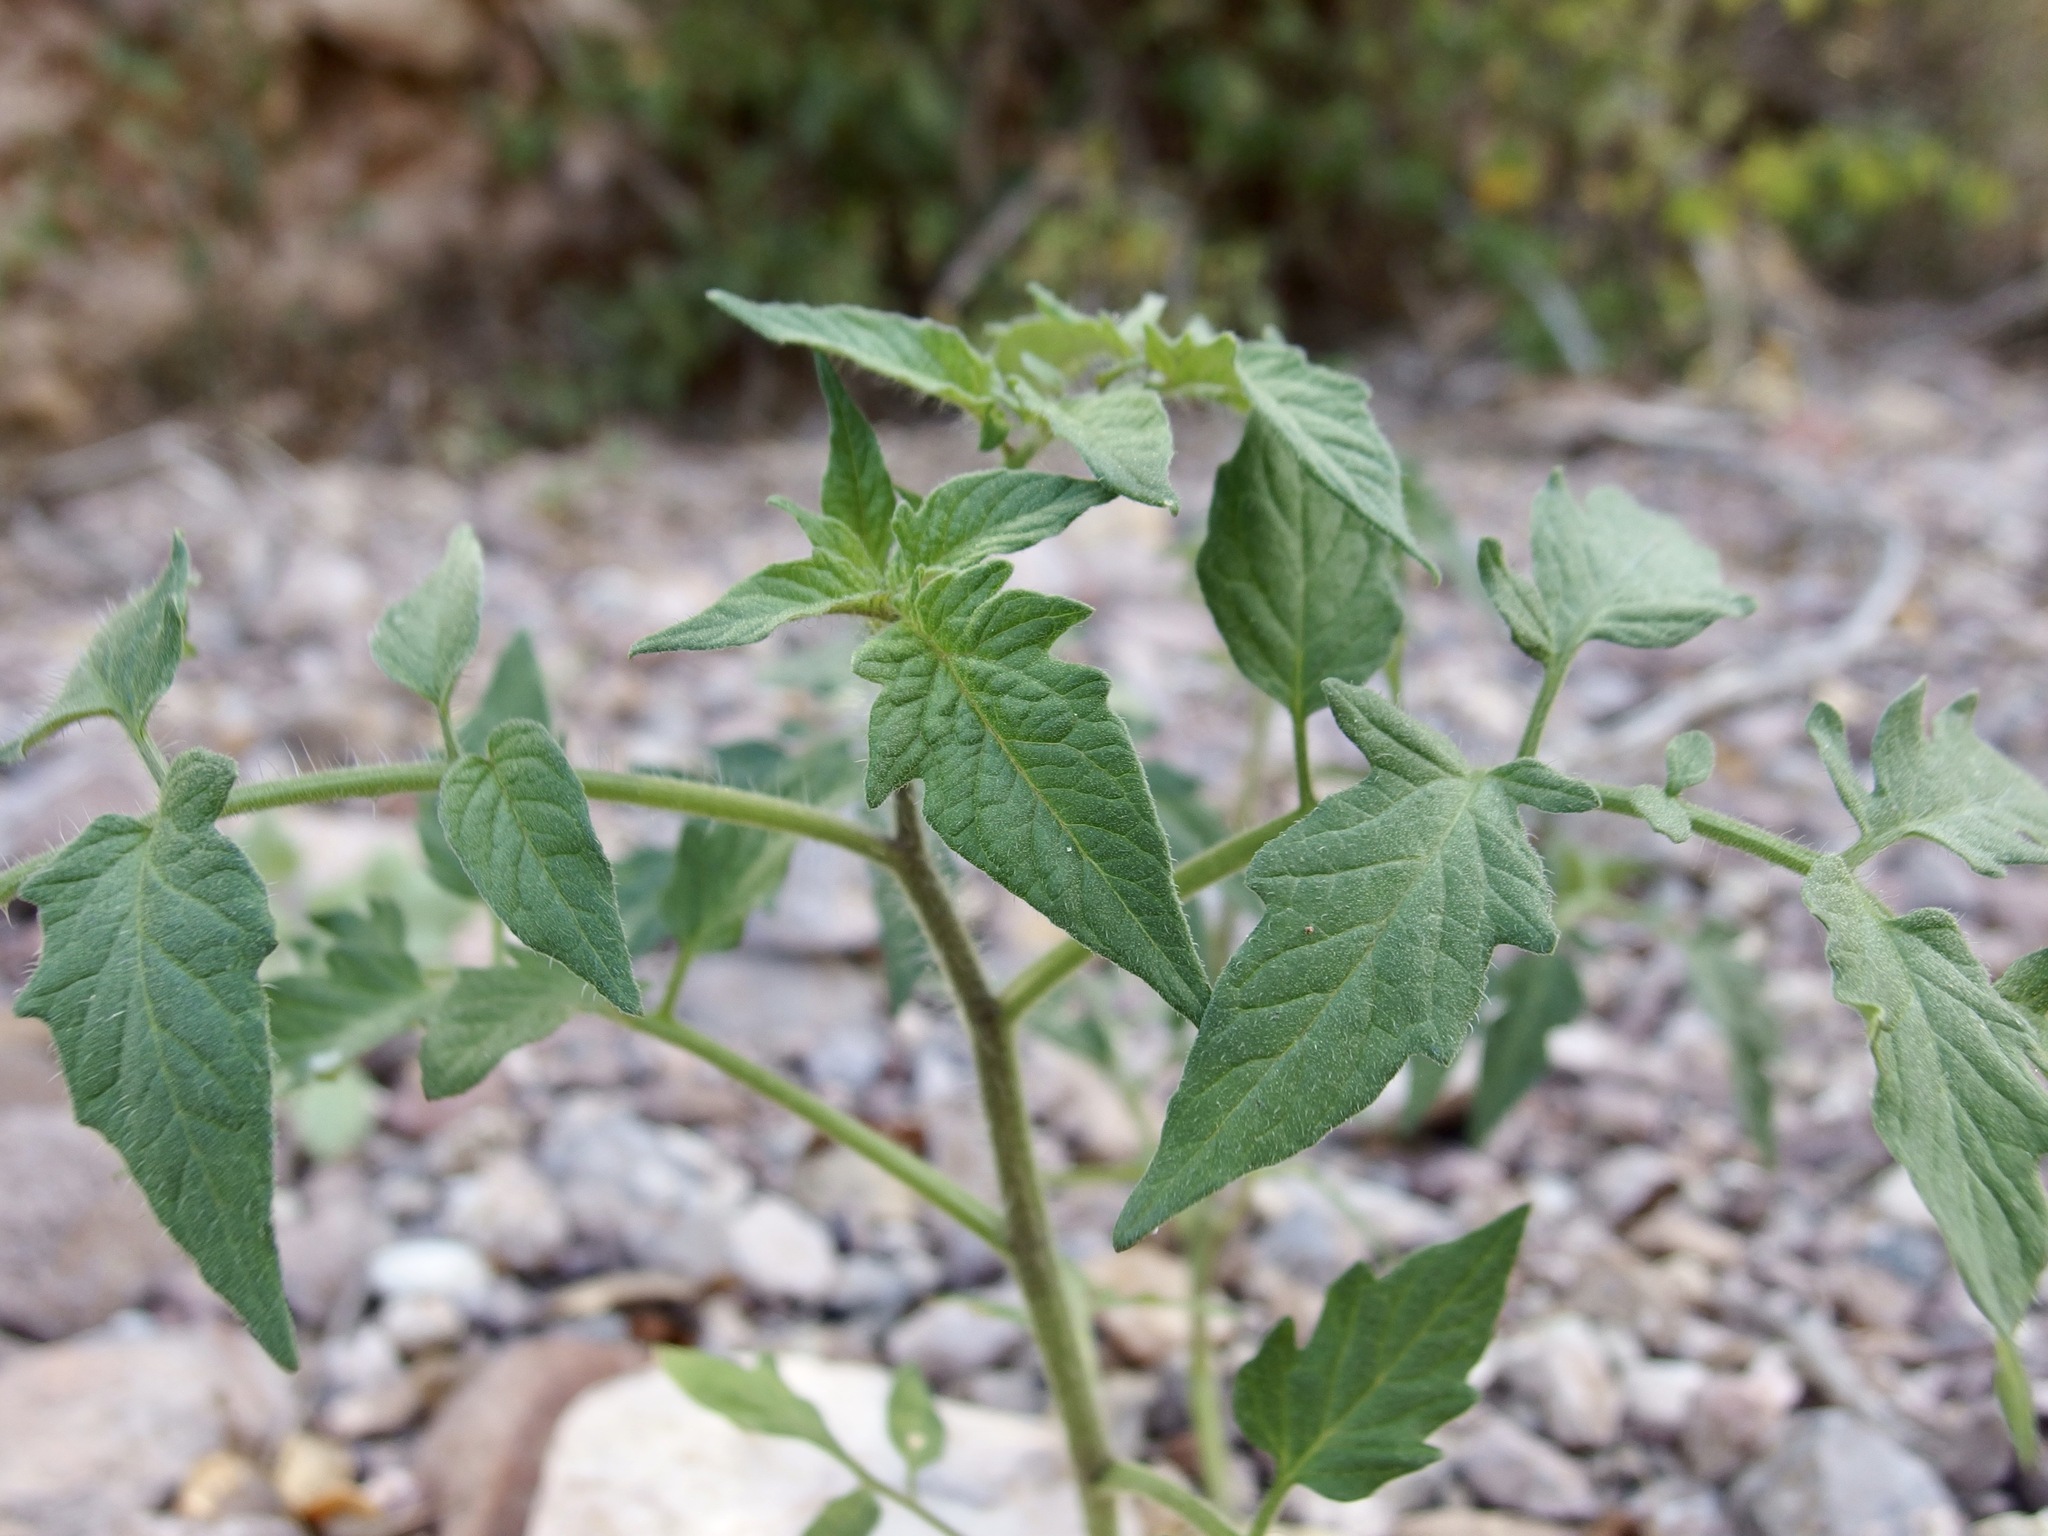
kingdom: Plantae
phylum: Tracheophyta
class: Magnoliopsida
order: Solanales
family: Solanaceae
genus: Solanum
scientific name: Solanum lycopersicum
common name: Garden tomato
